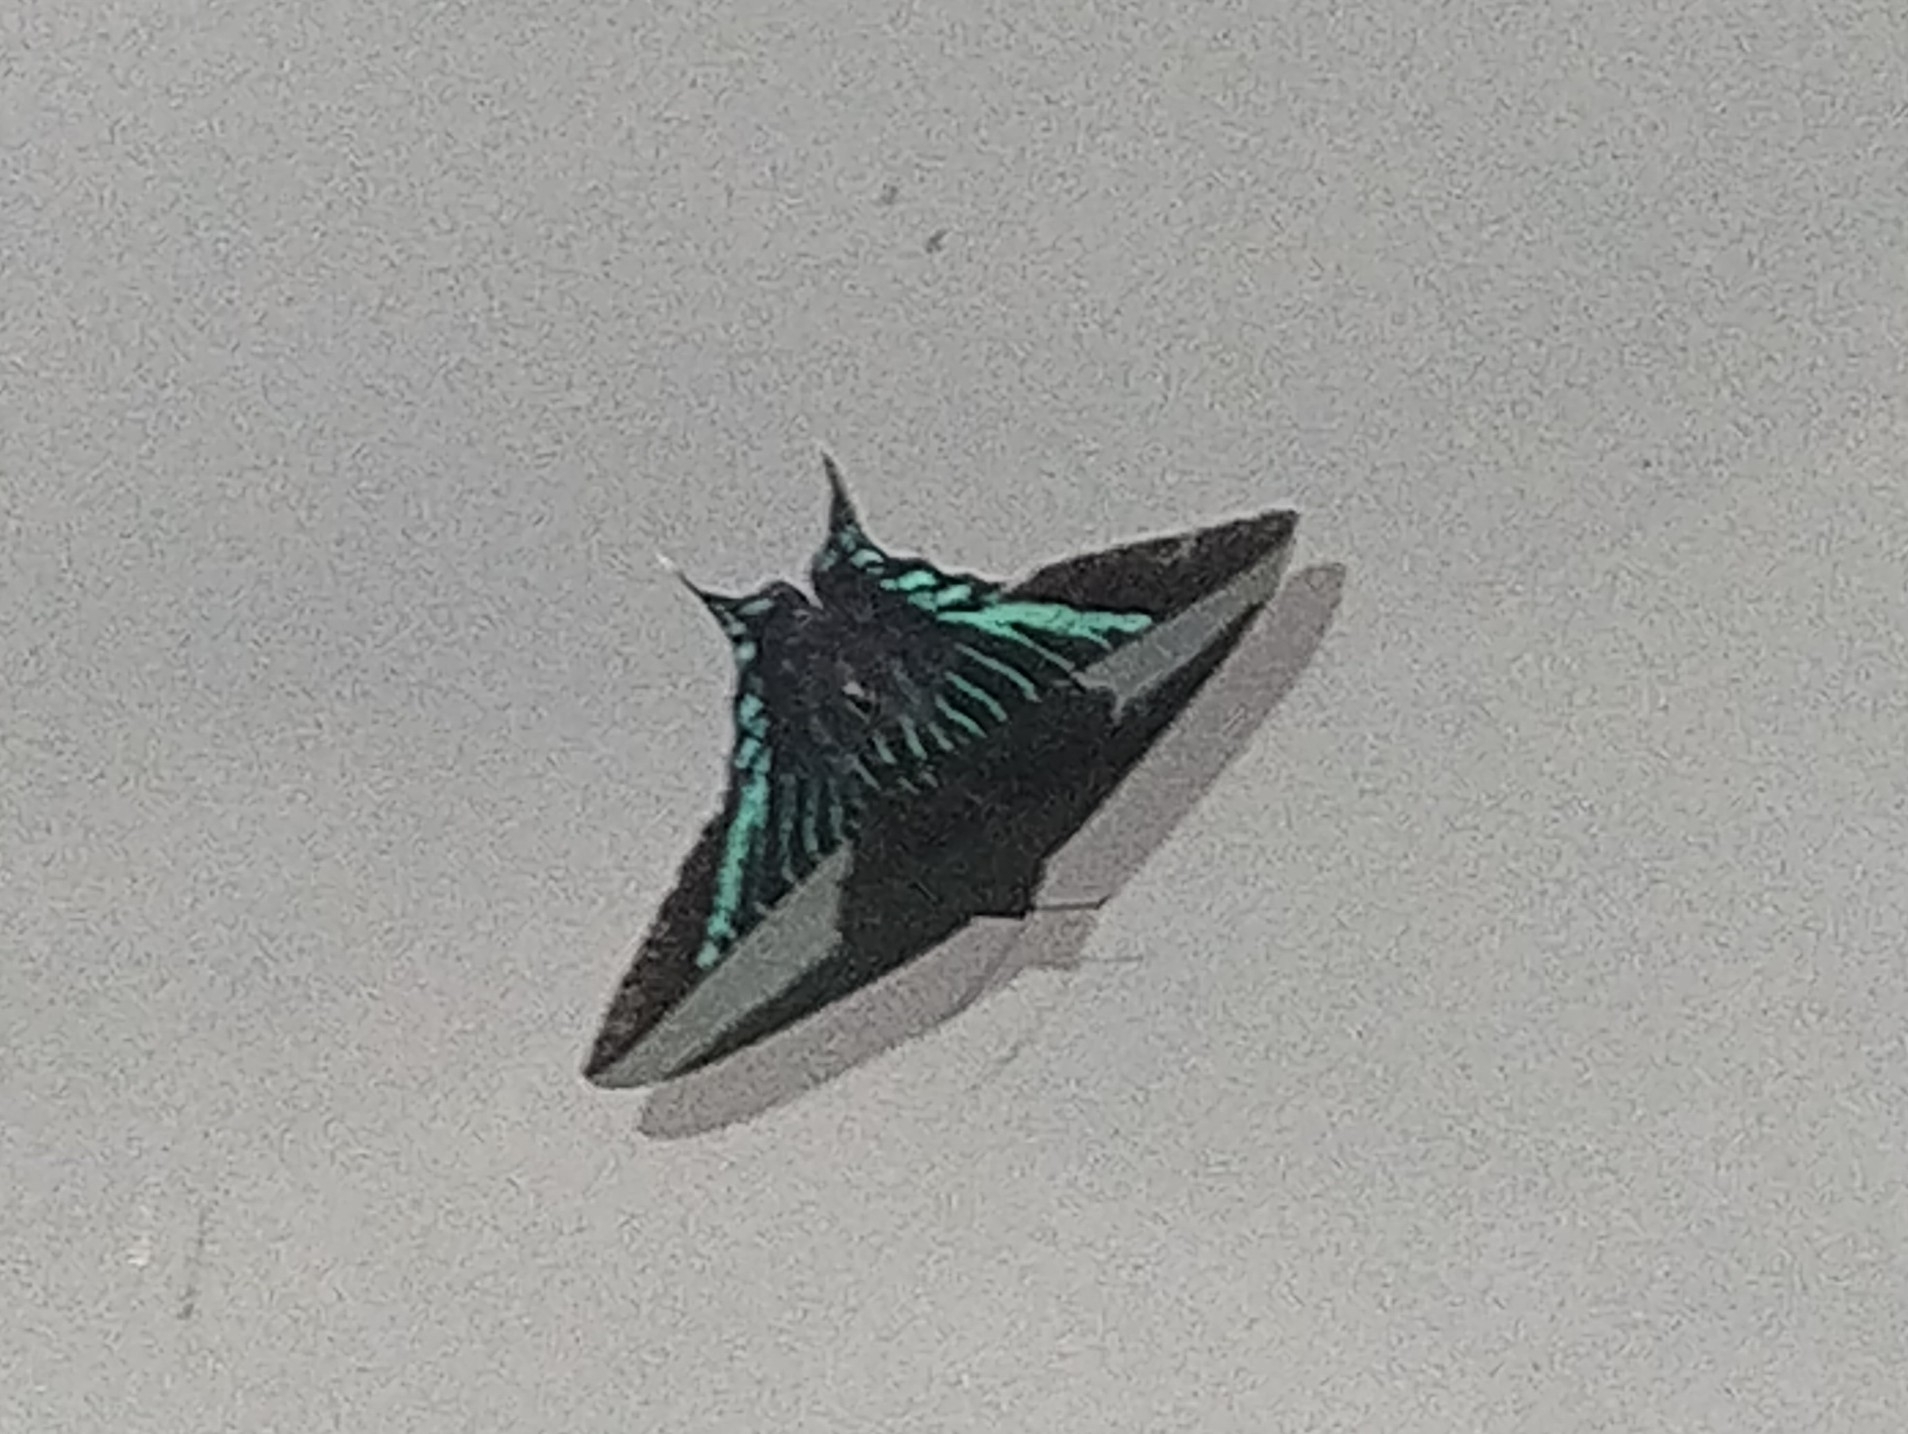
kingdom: Animalia
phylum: Arthropoda
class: Insecta
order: Lepidoptera
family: Uraniidae
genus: Urania
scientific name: Urania fulgens
